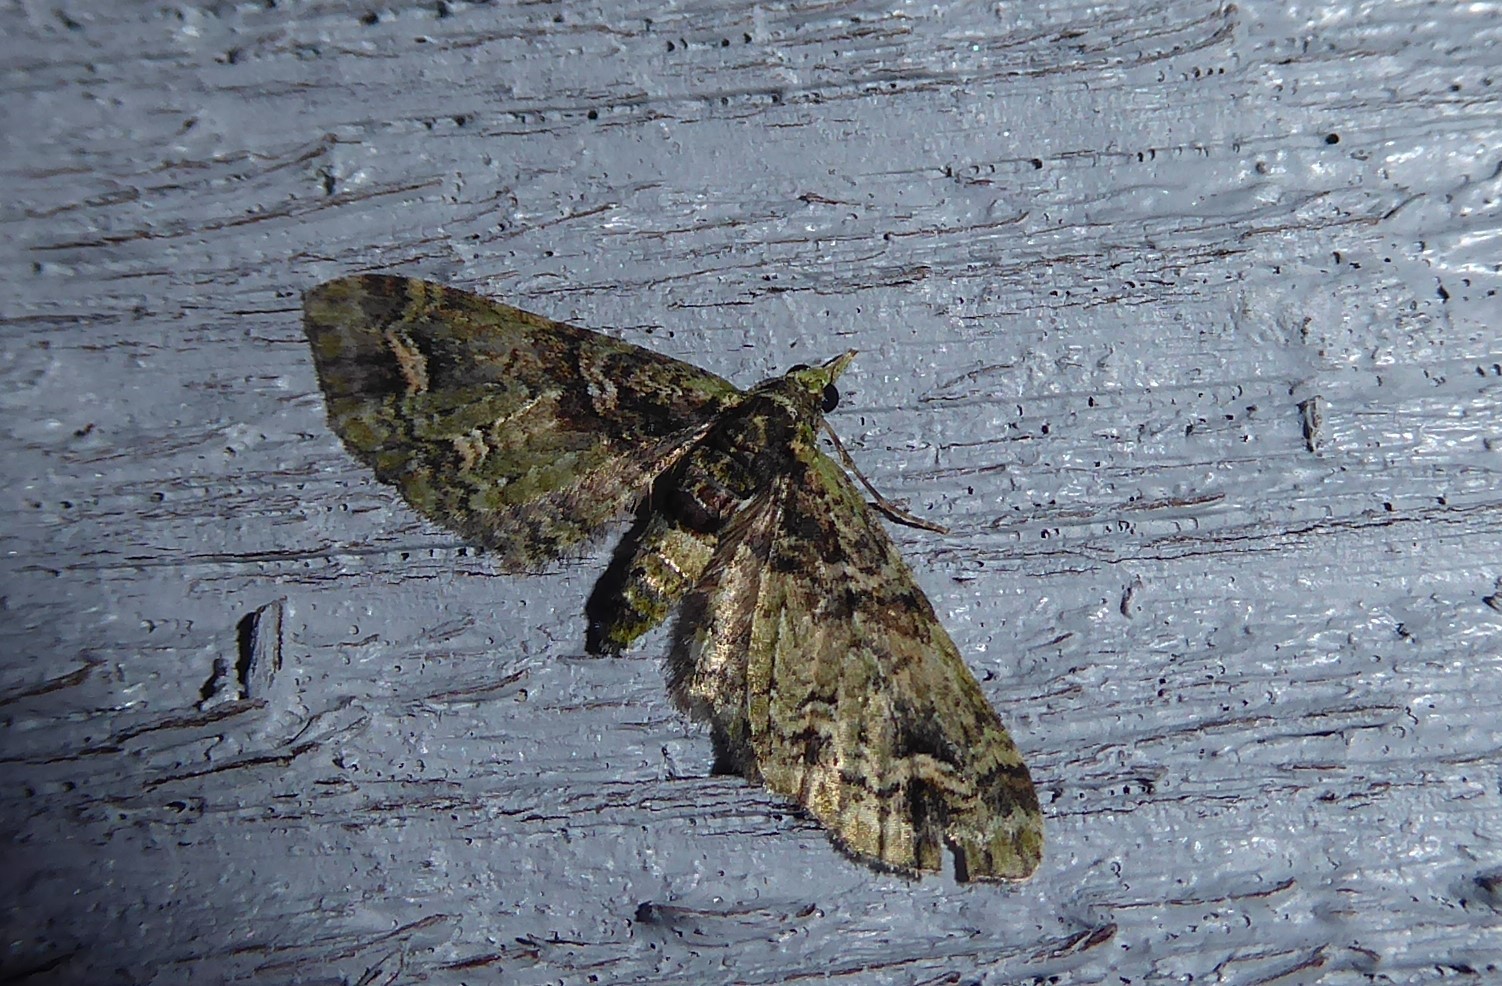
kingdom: Animalia
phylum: Arthropoda
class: Insecta
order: Lepidoptera
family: Geometridae
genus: Idaea
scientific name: Idaea mutanda
